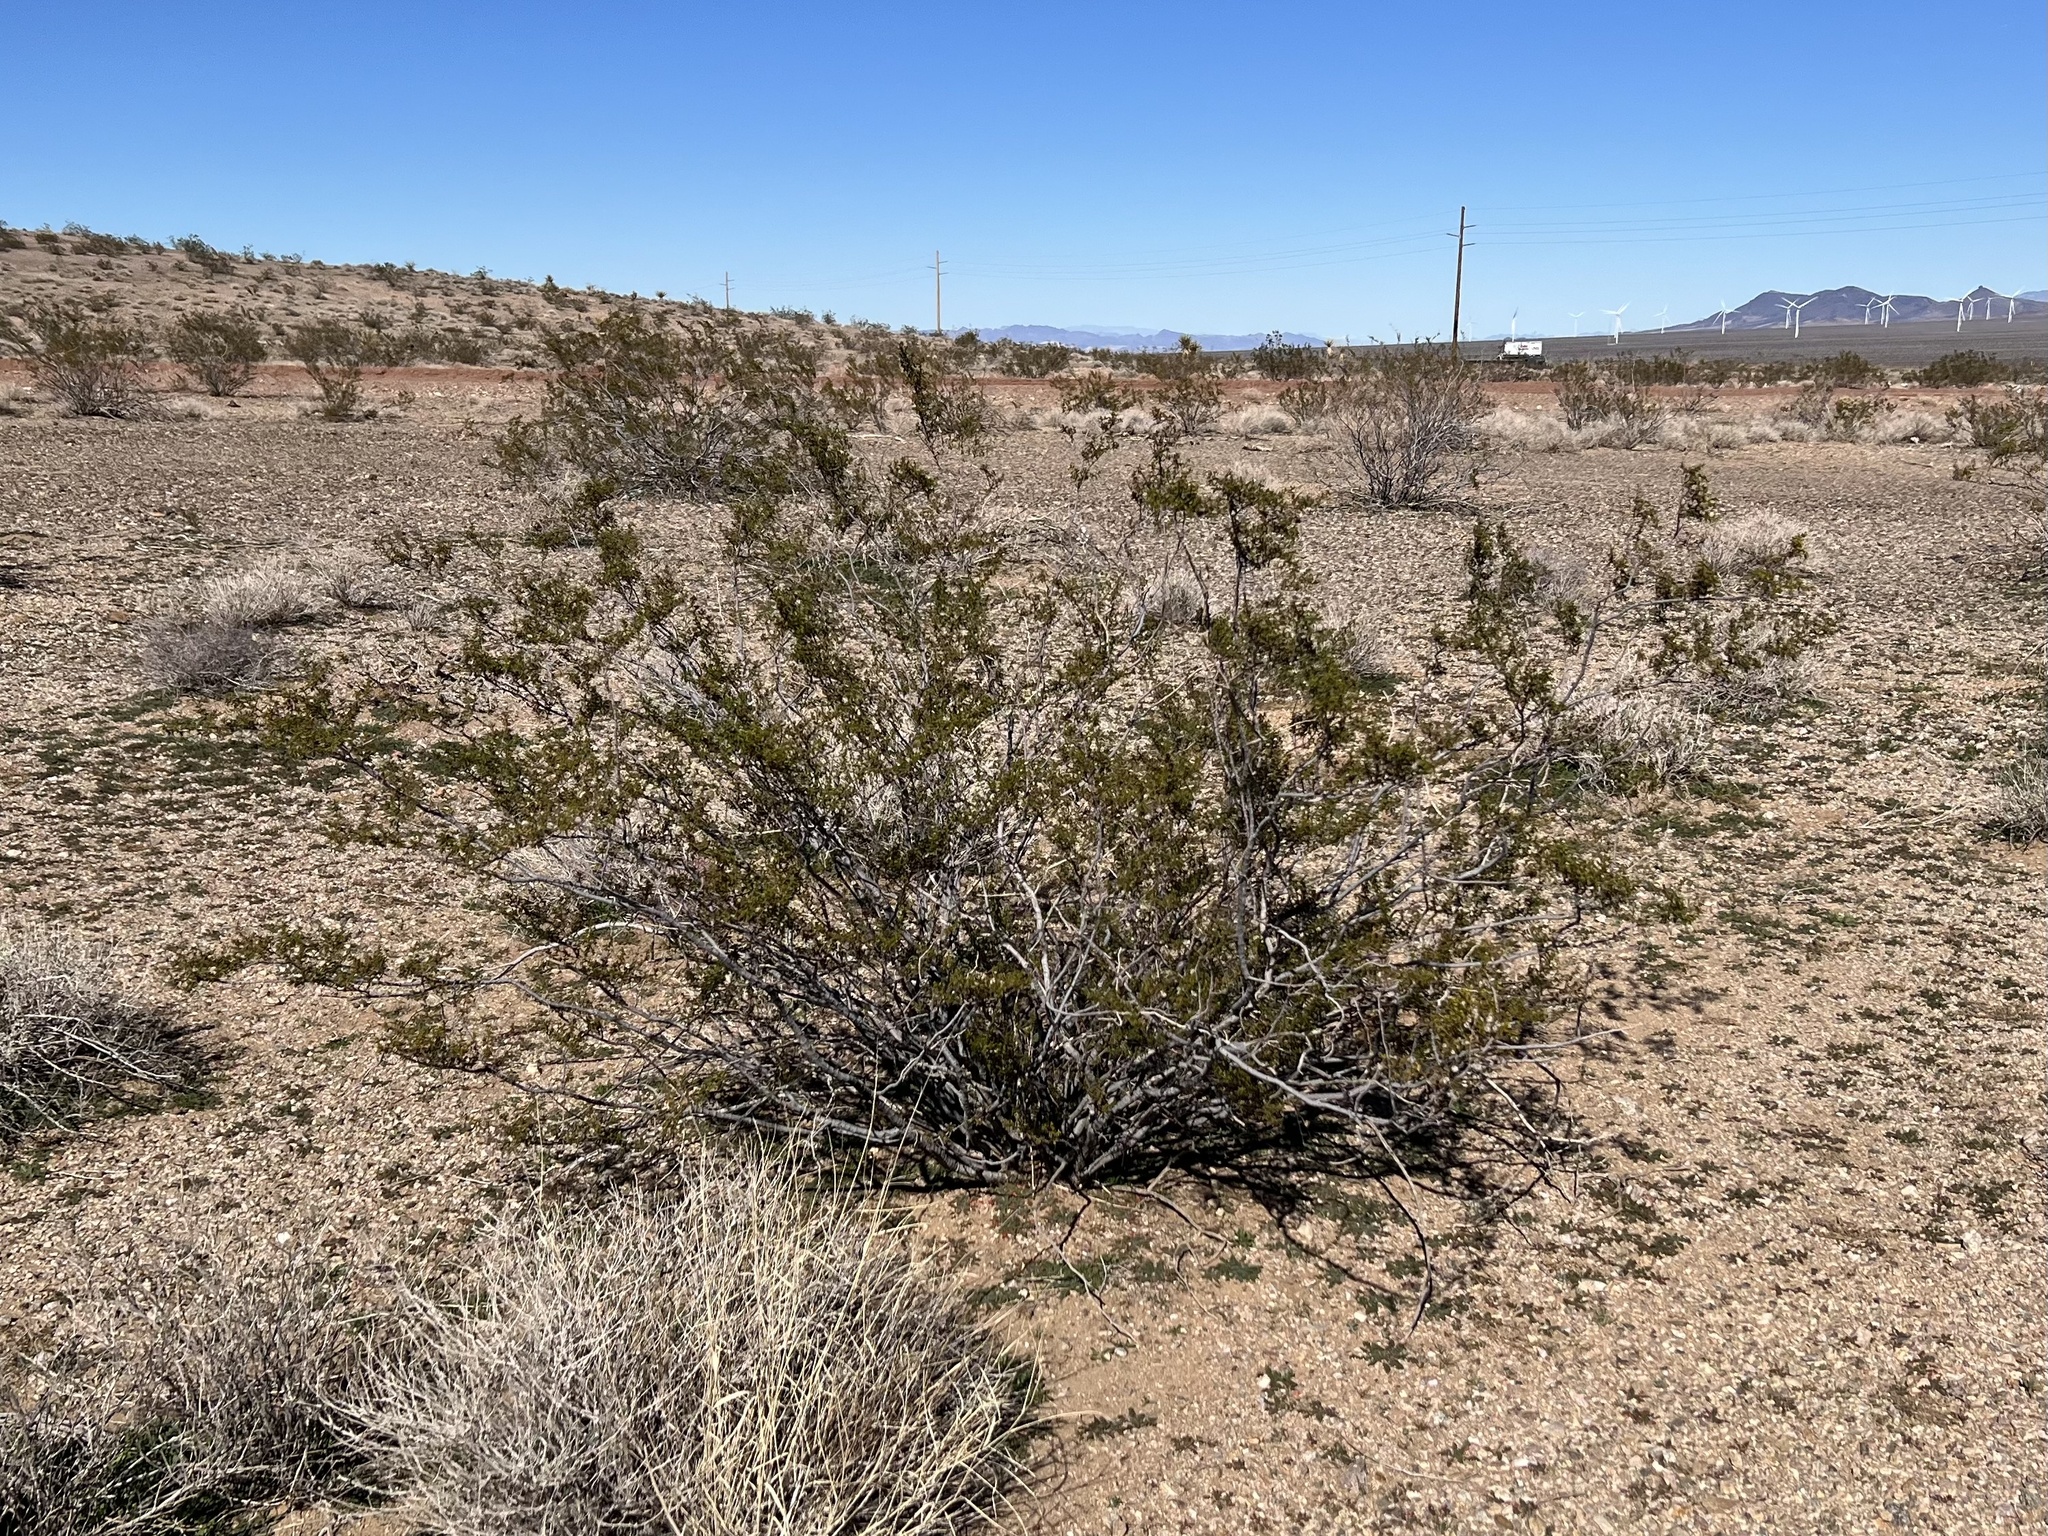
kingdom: Plantae
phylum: Tracheophyta
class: Magnoliopsida
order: Zygophyllales
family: Zygophyllaceae
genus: Larrea
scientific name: Larrea tridentata
